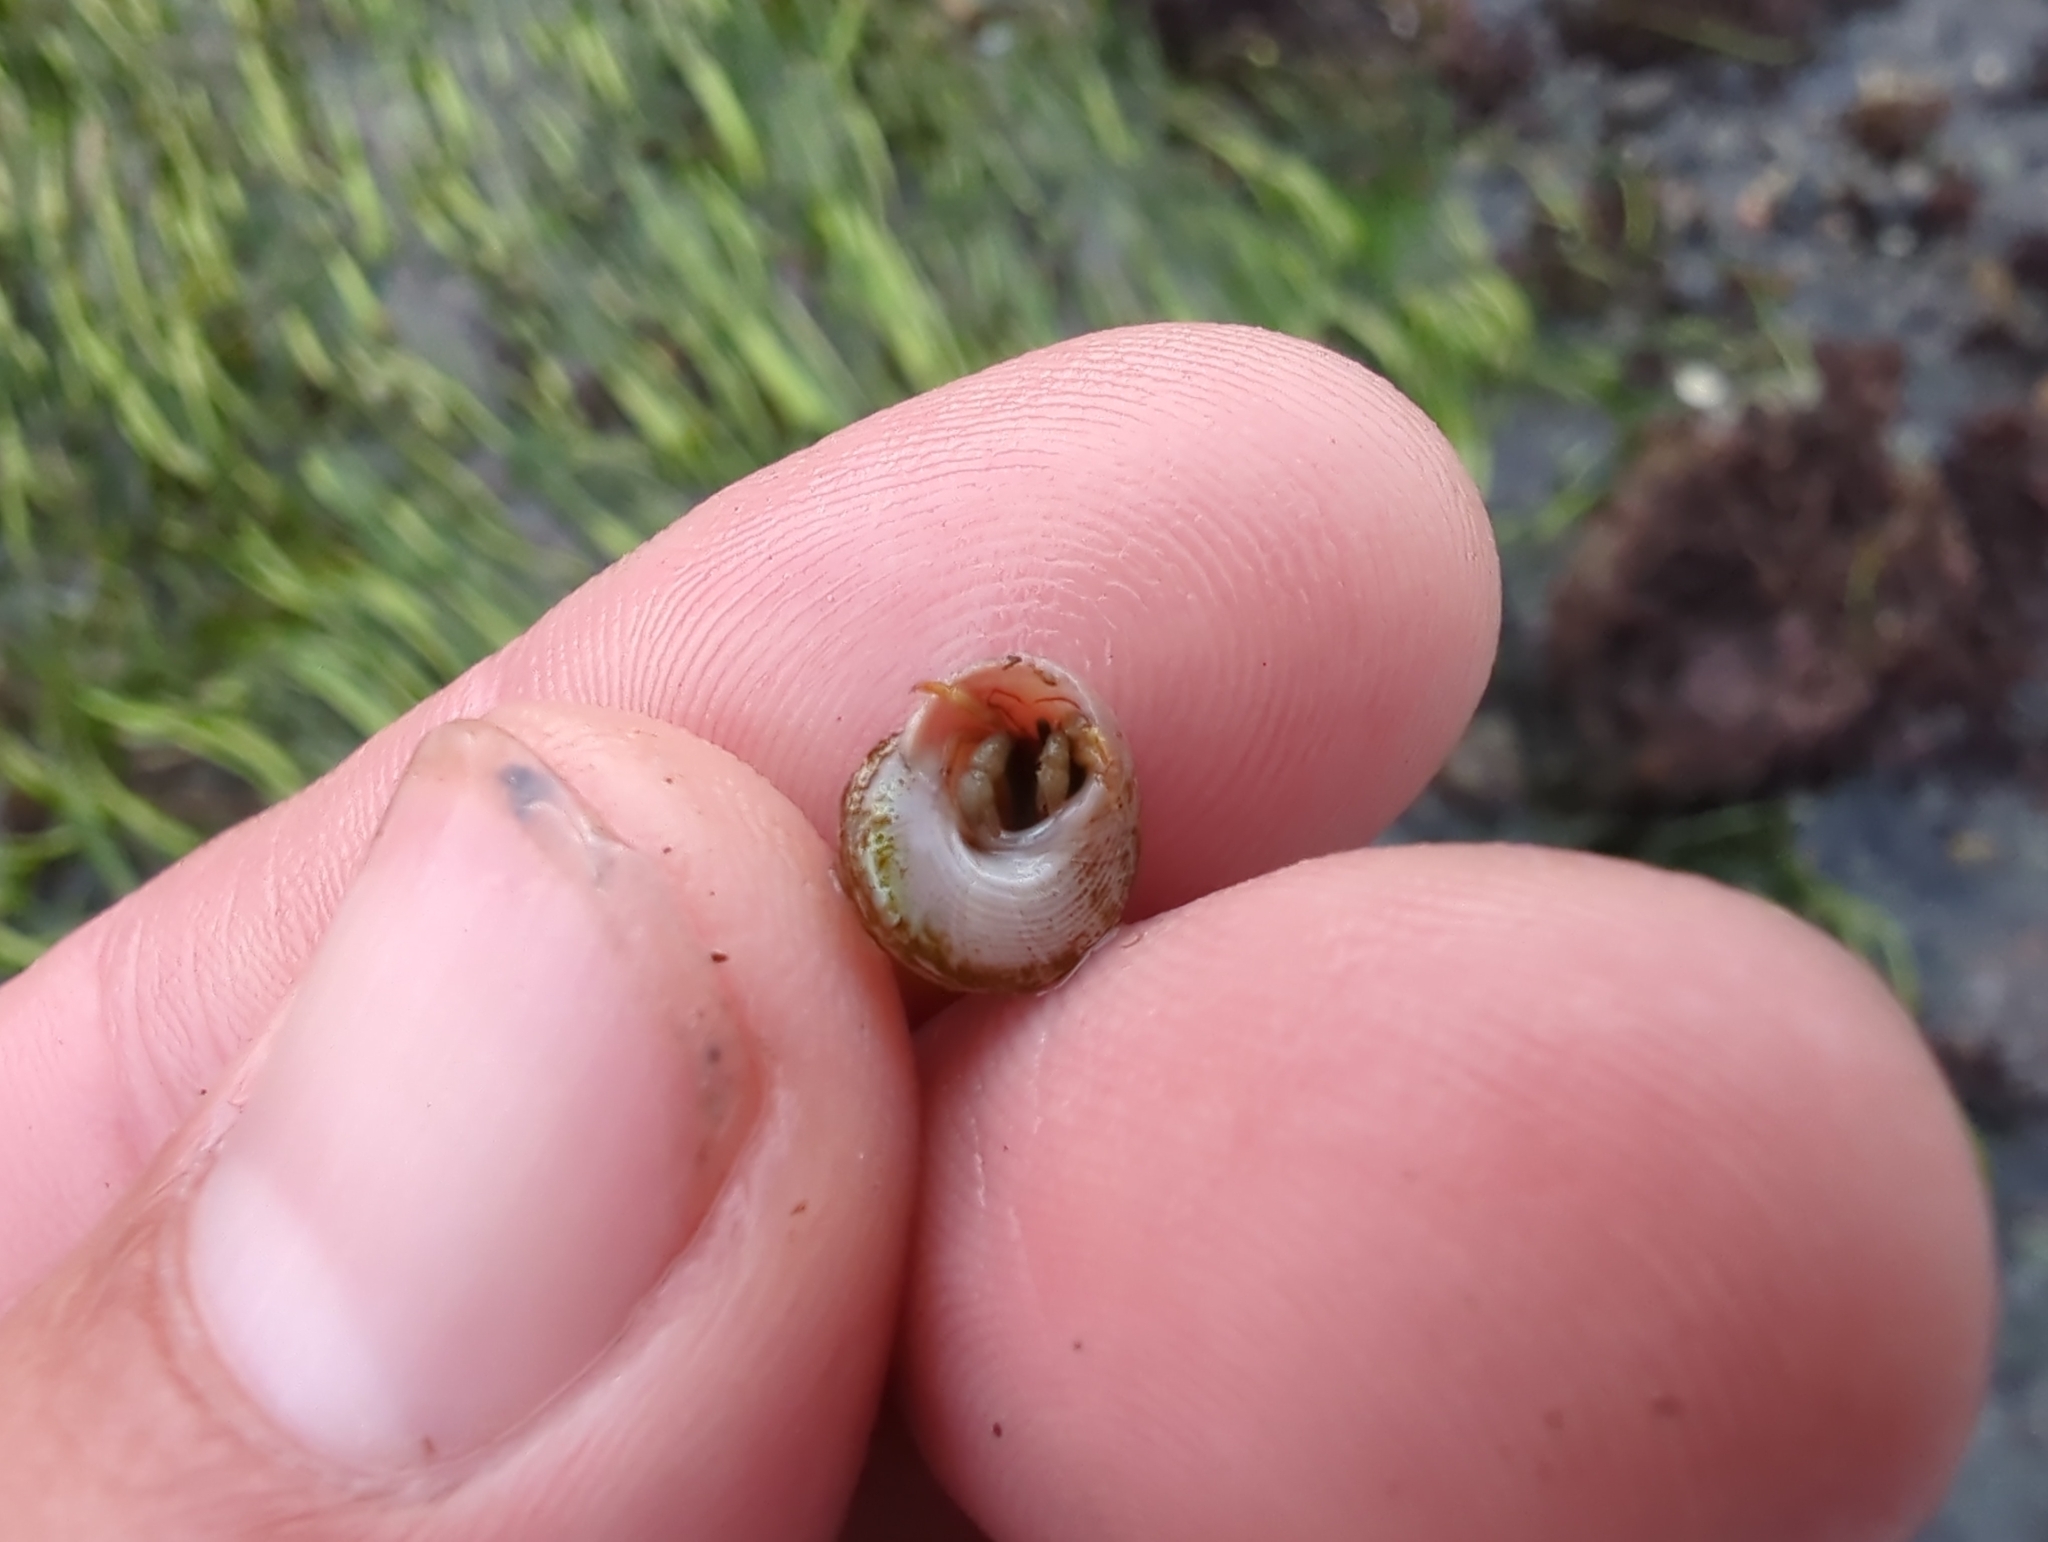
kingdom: Animalia
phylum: Mollusca
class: Gastropoda
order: Trochida
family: Margaritidae
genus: Margarites
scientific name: Margarites pupillus
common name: Puppet margarite
